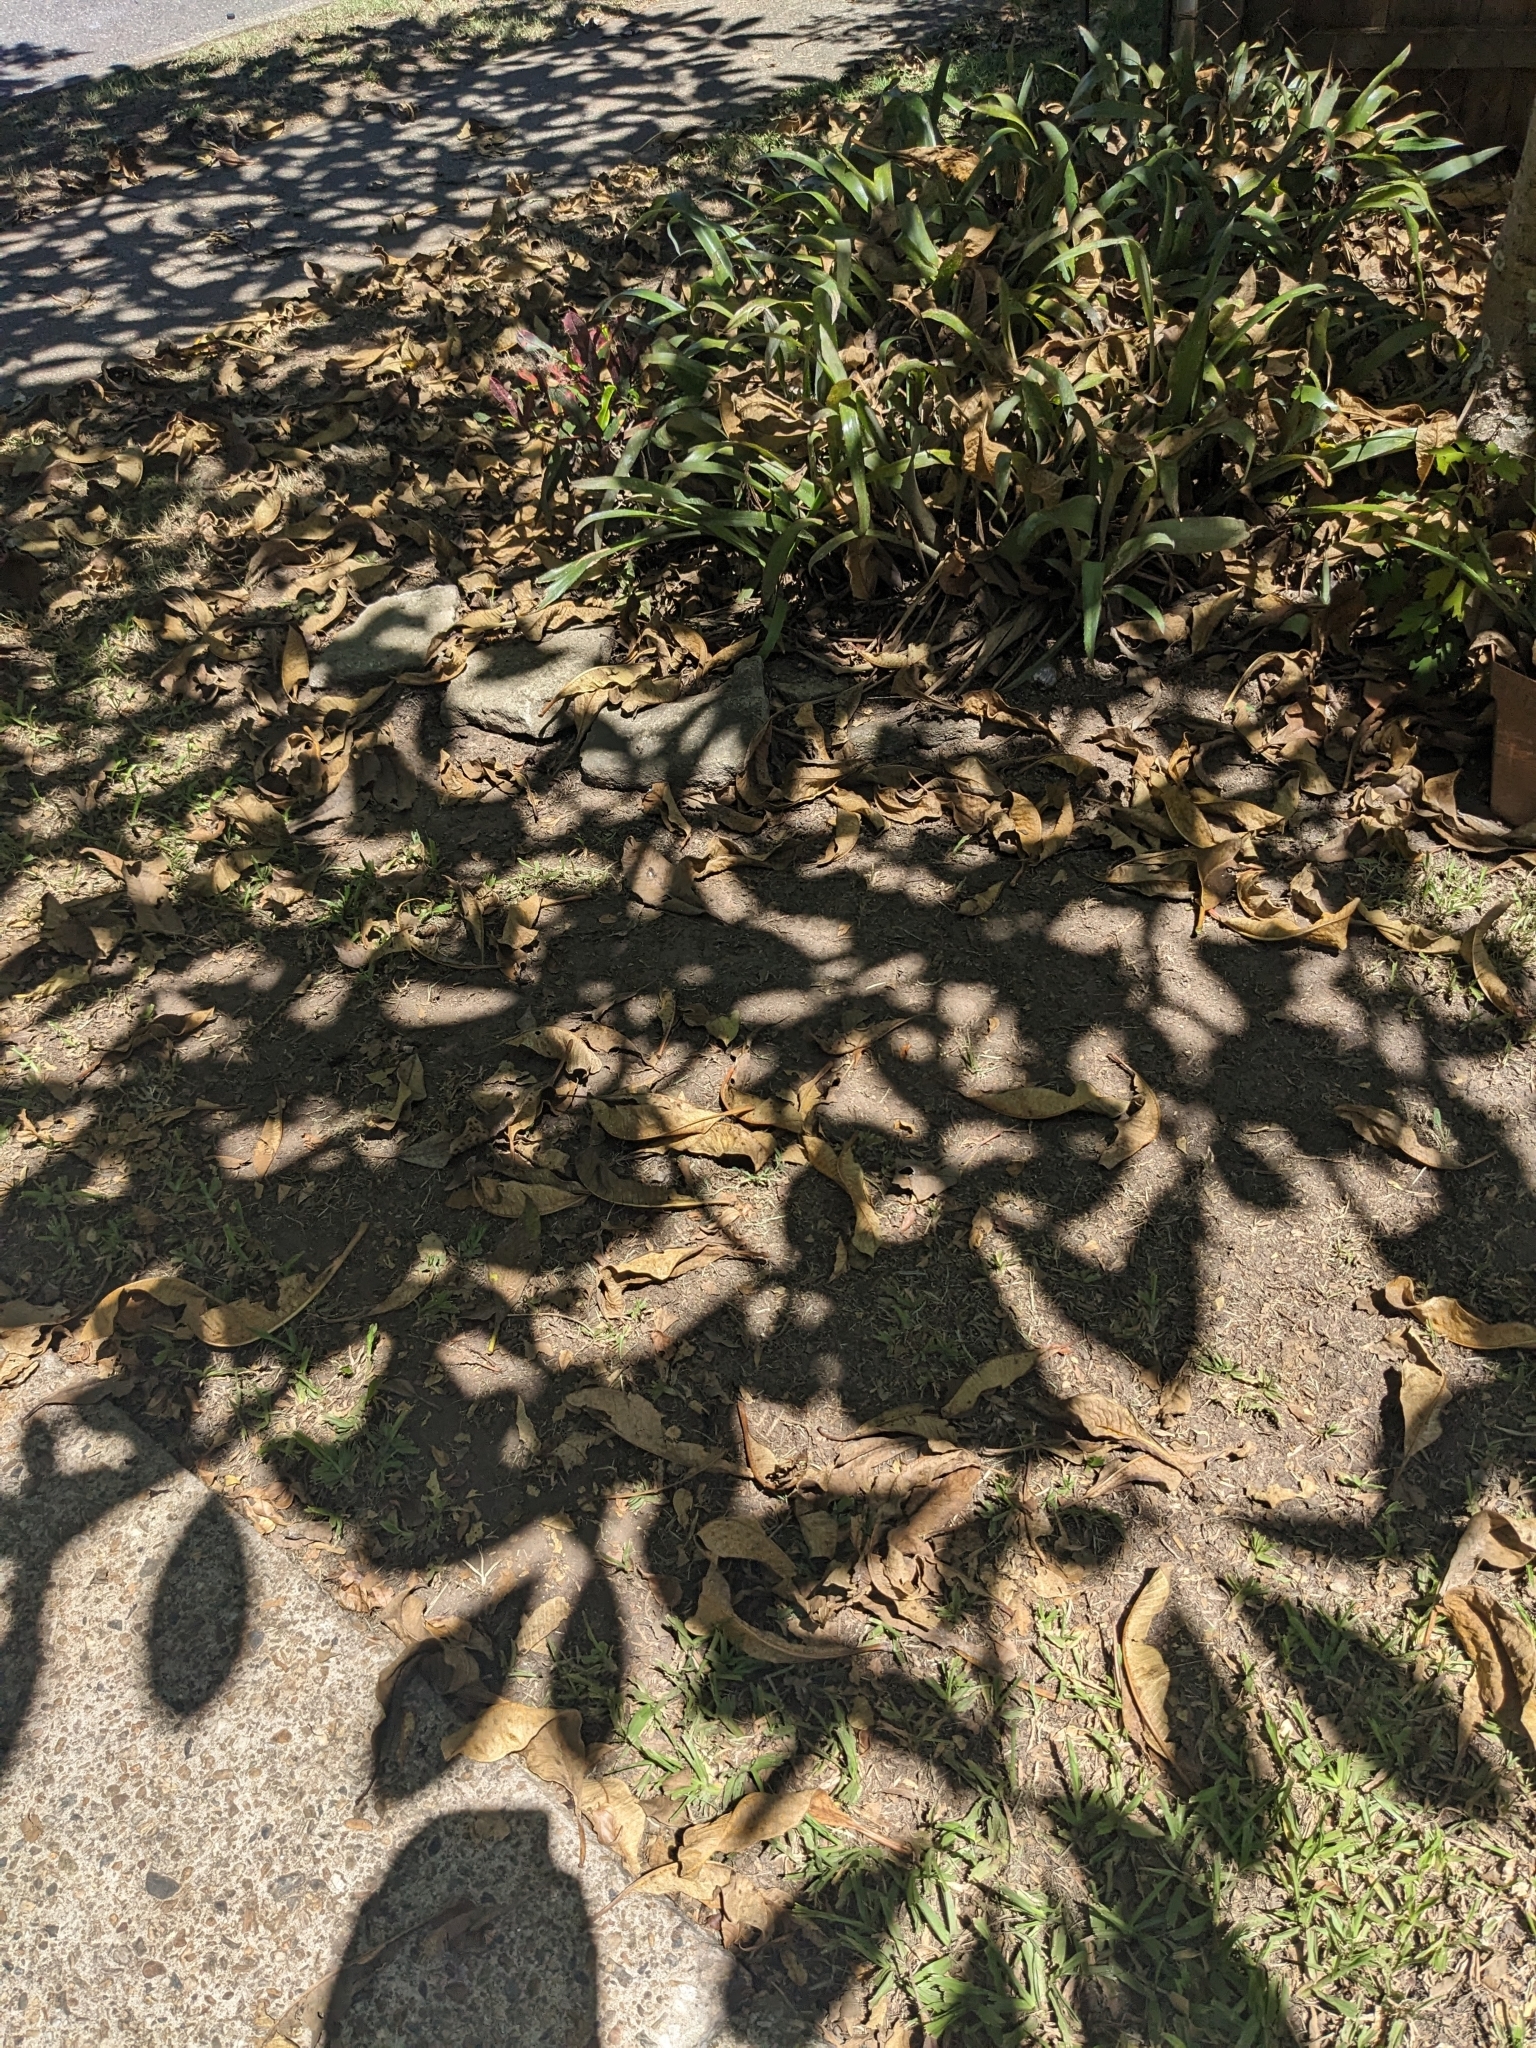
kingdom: Fungi
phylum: Basidiomycota
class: Pucciniomycetes
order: Pucciniales
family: Coleosporiaceae
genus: Coleosporium
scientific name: Coleosporium plumeriae
